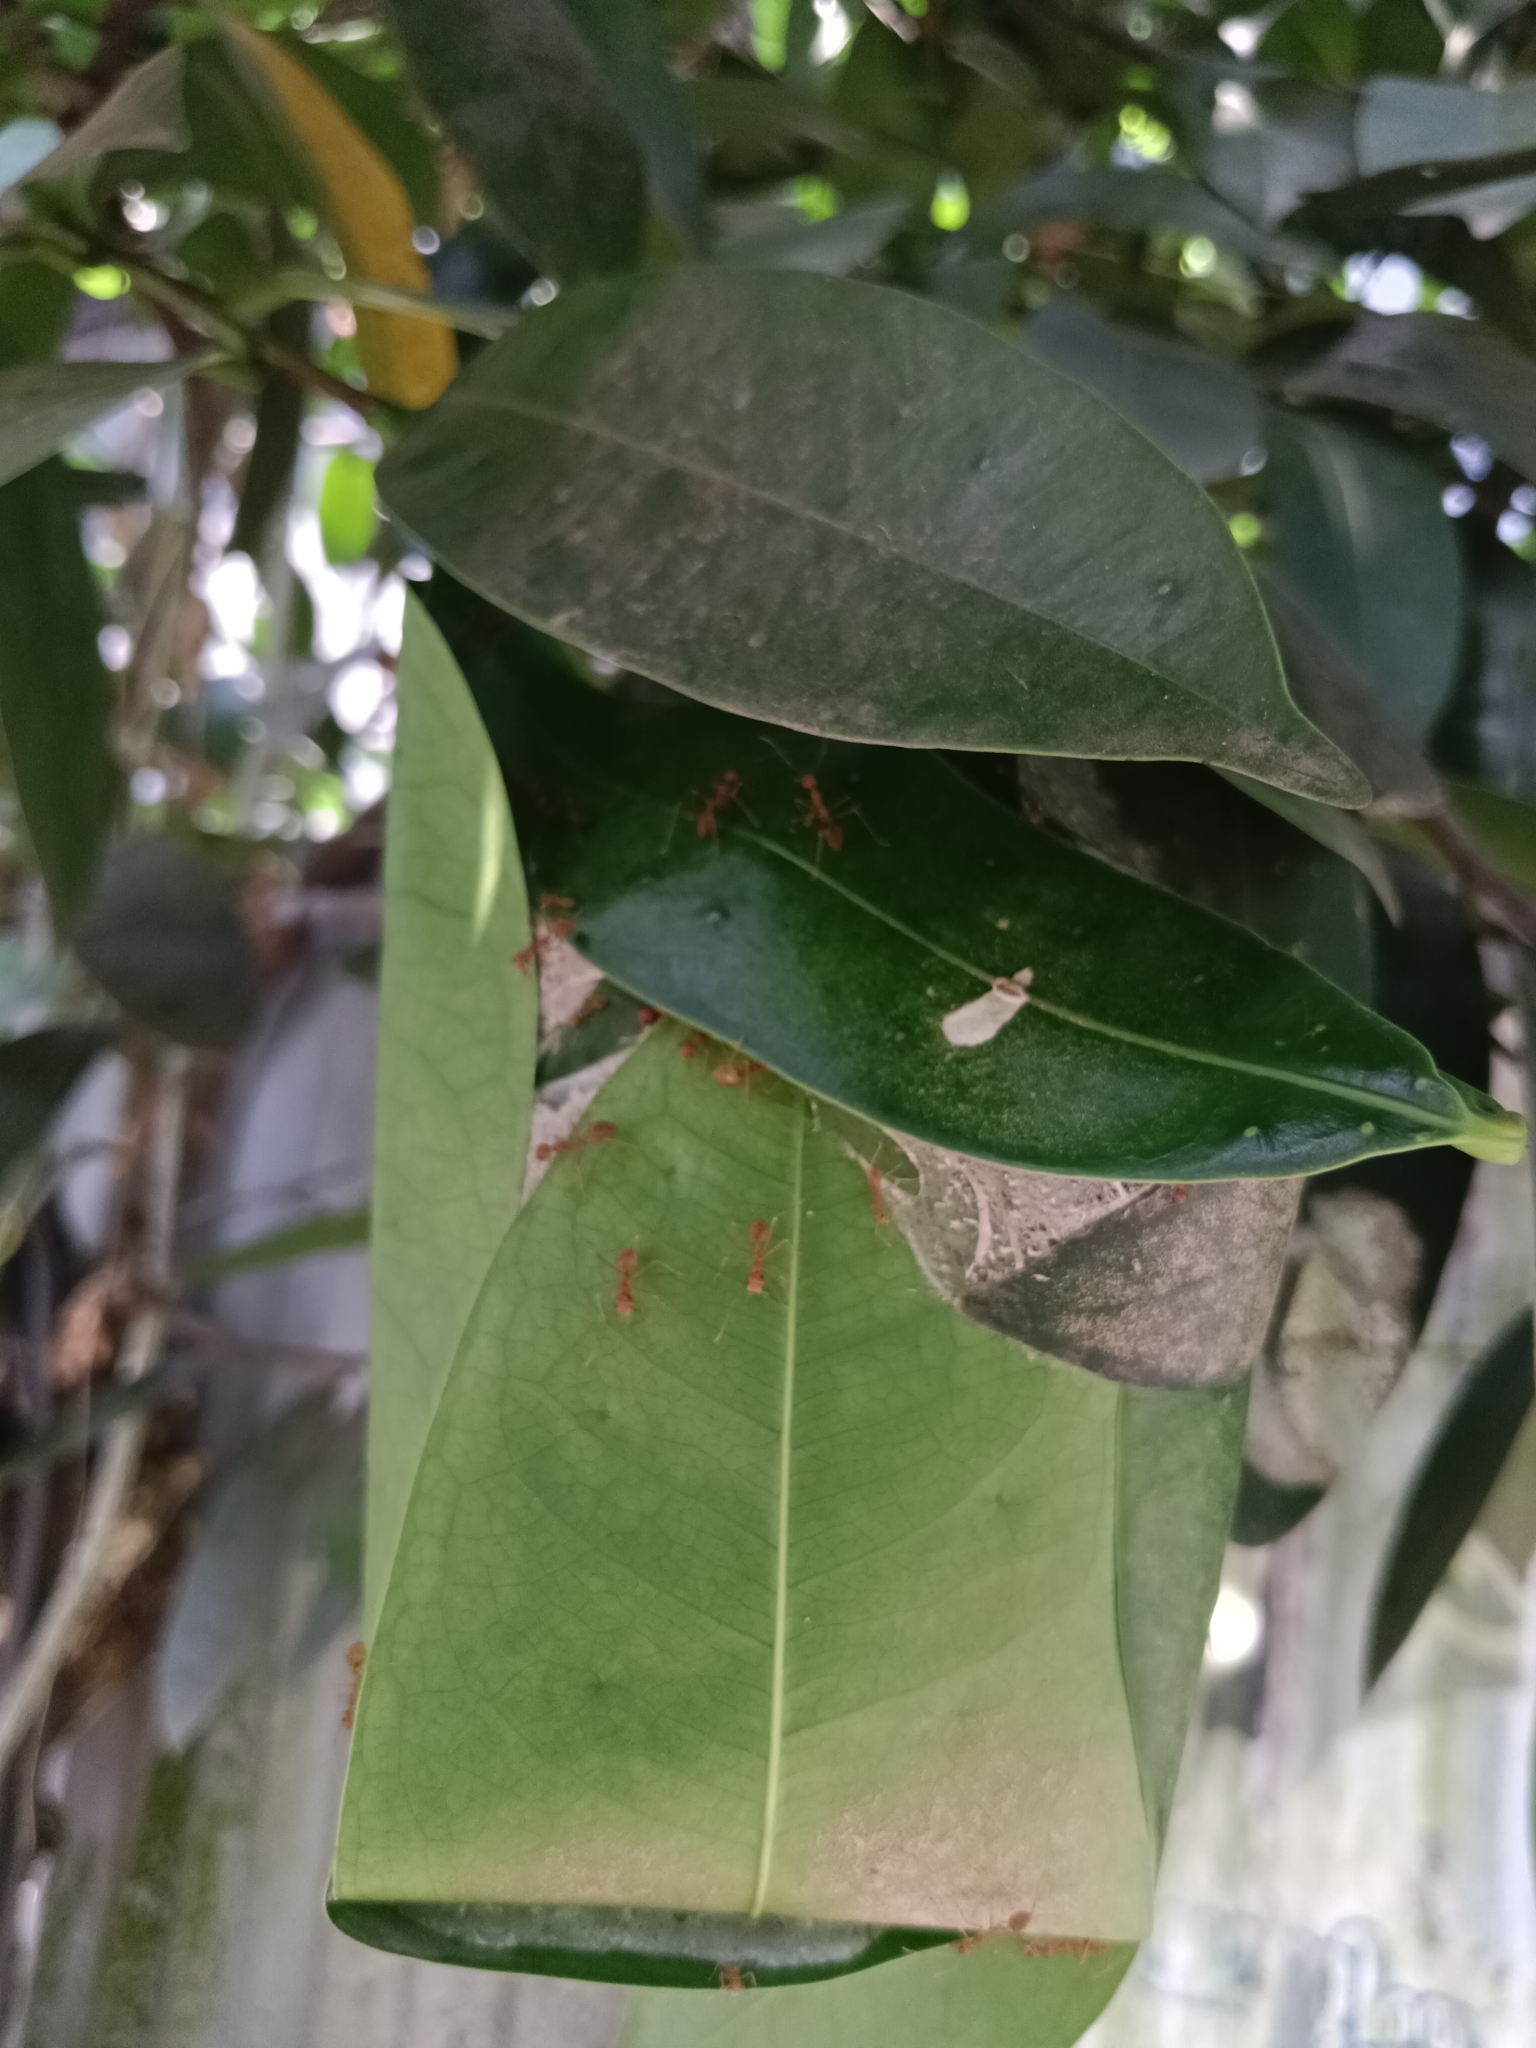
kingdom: Animalia
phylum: Arthropoda
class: Insecta
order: Hymenoptera
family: Formicidae
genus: Oecophylla
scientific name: Oecophylla smaragdina
